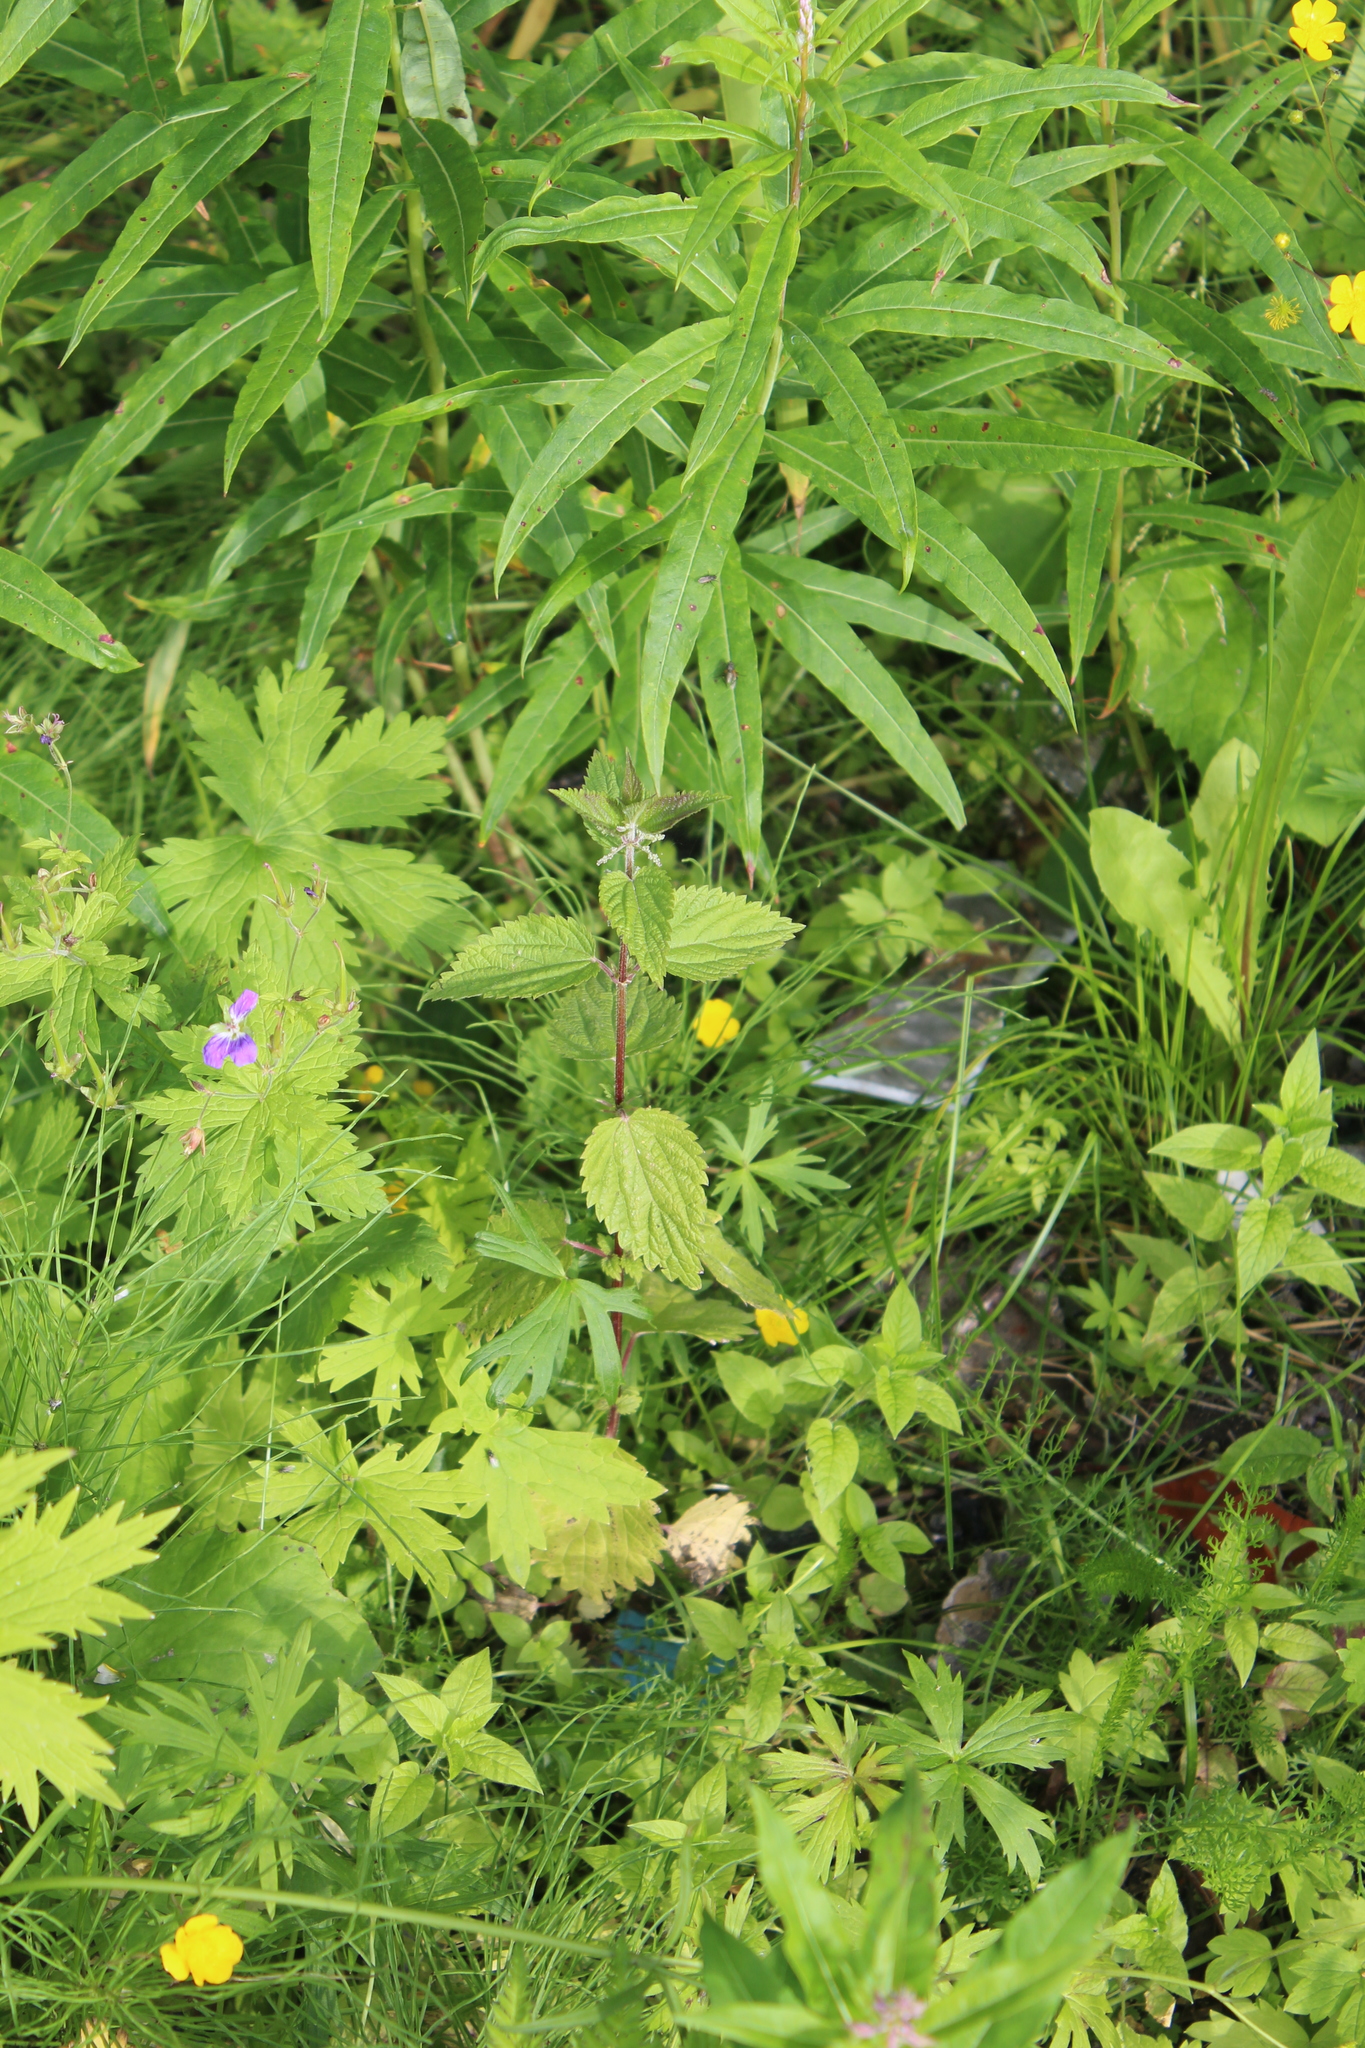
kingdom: Plantae
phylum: Tracheophyta
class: Magnoliopsida
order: Rosales
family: Urticaceae
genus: Urtica
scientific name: Urtica dioica
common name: Common nettle
